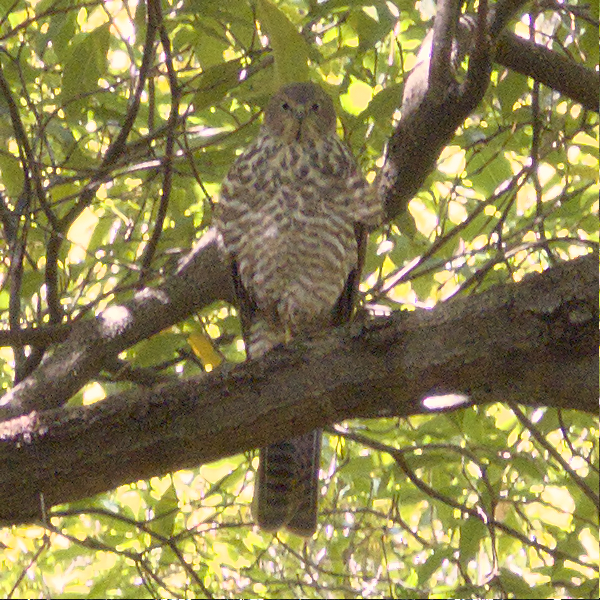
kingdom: Animalia
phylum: Chordata
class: Aves
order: Accipitriformes
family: Accipitridae
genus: Accipiter
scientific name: Accipiter cirrocephalus
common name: Collared sparrowhawk
